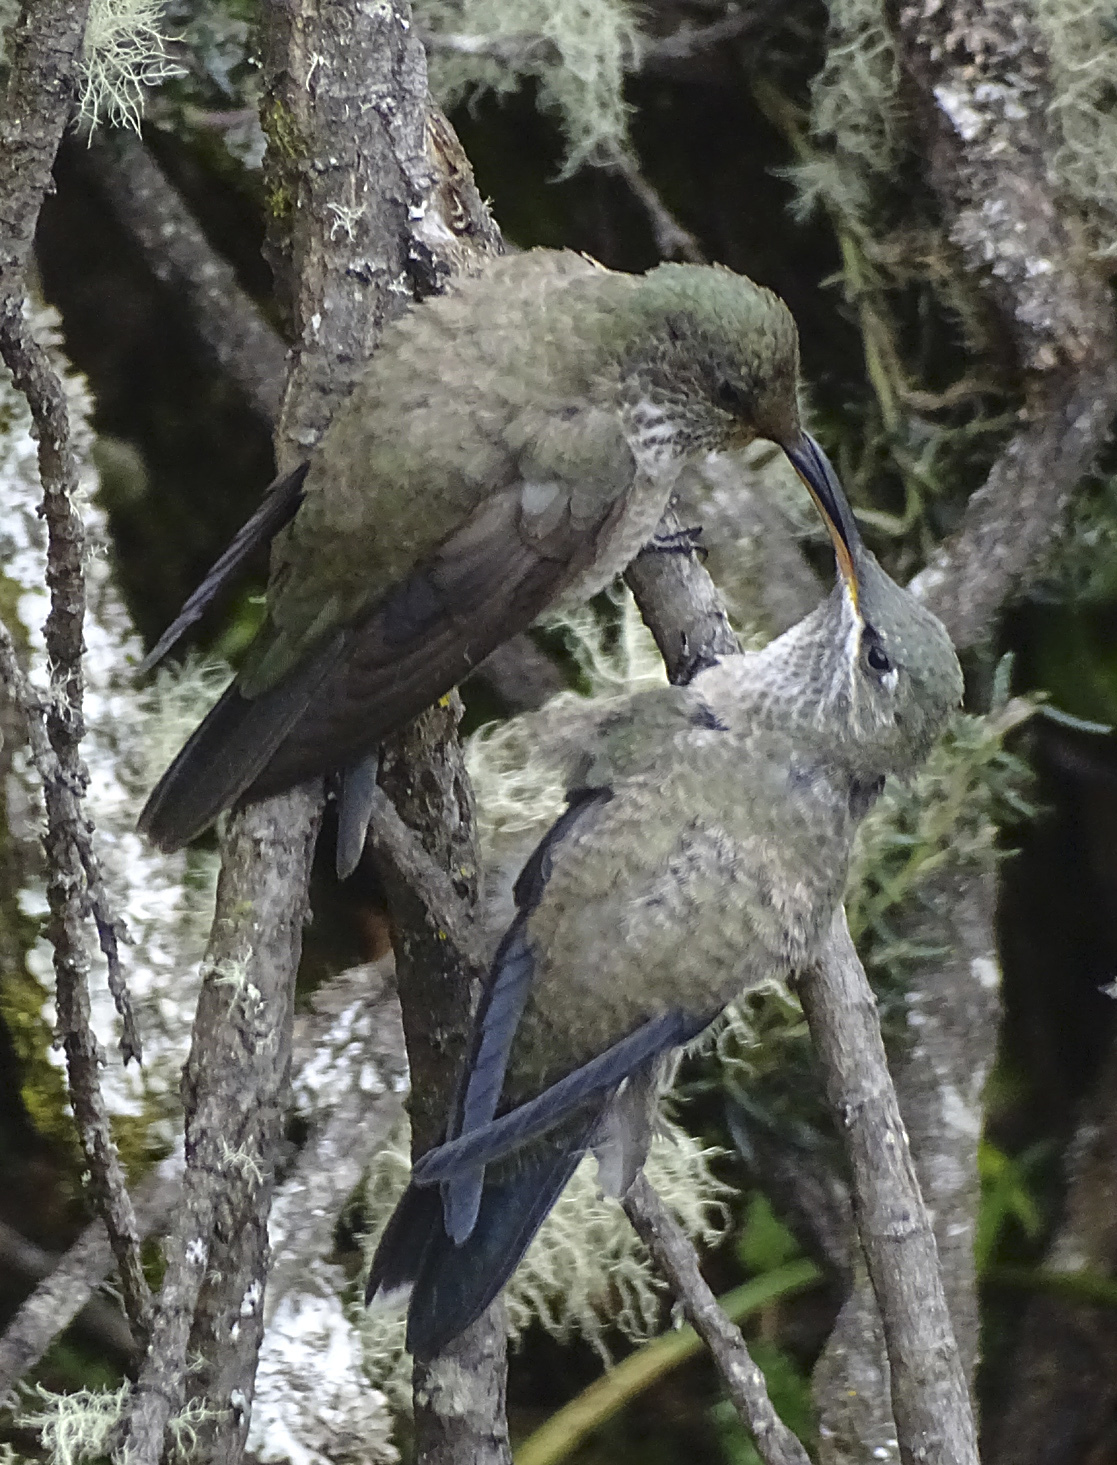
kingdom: Animalia
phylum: Chordata
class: Aves
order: Apodiformes
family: Trochilidae
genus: Oreotrochilus
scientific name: Oreotrochilus chimborazo
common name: Ecuadorian hillstar
